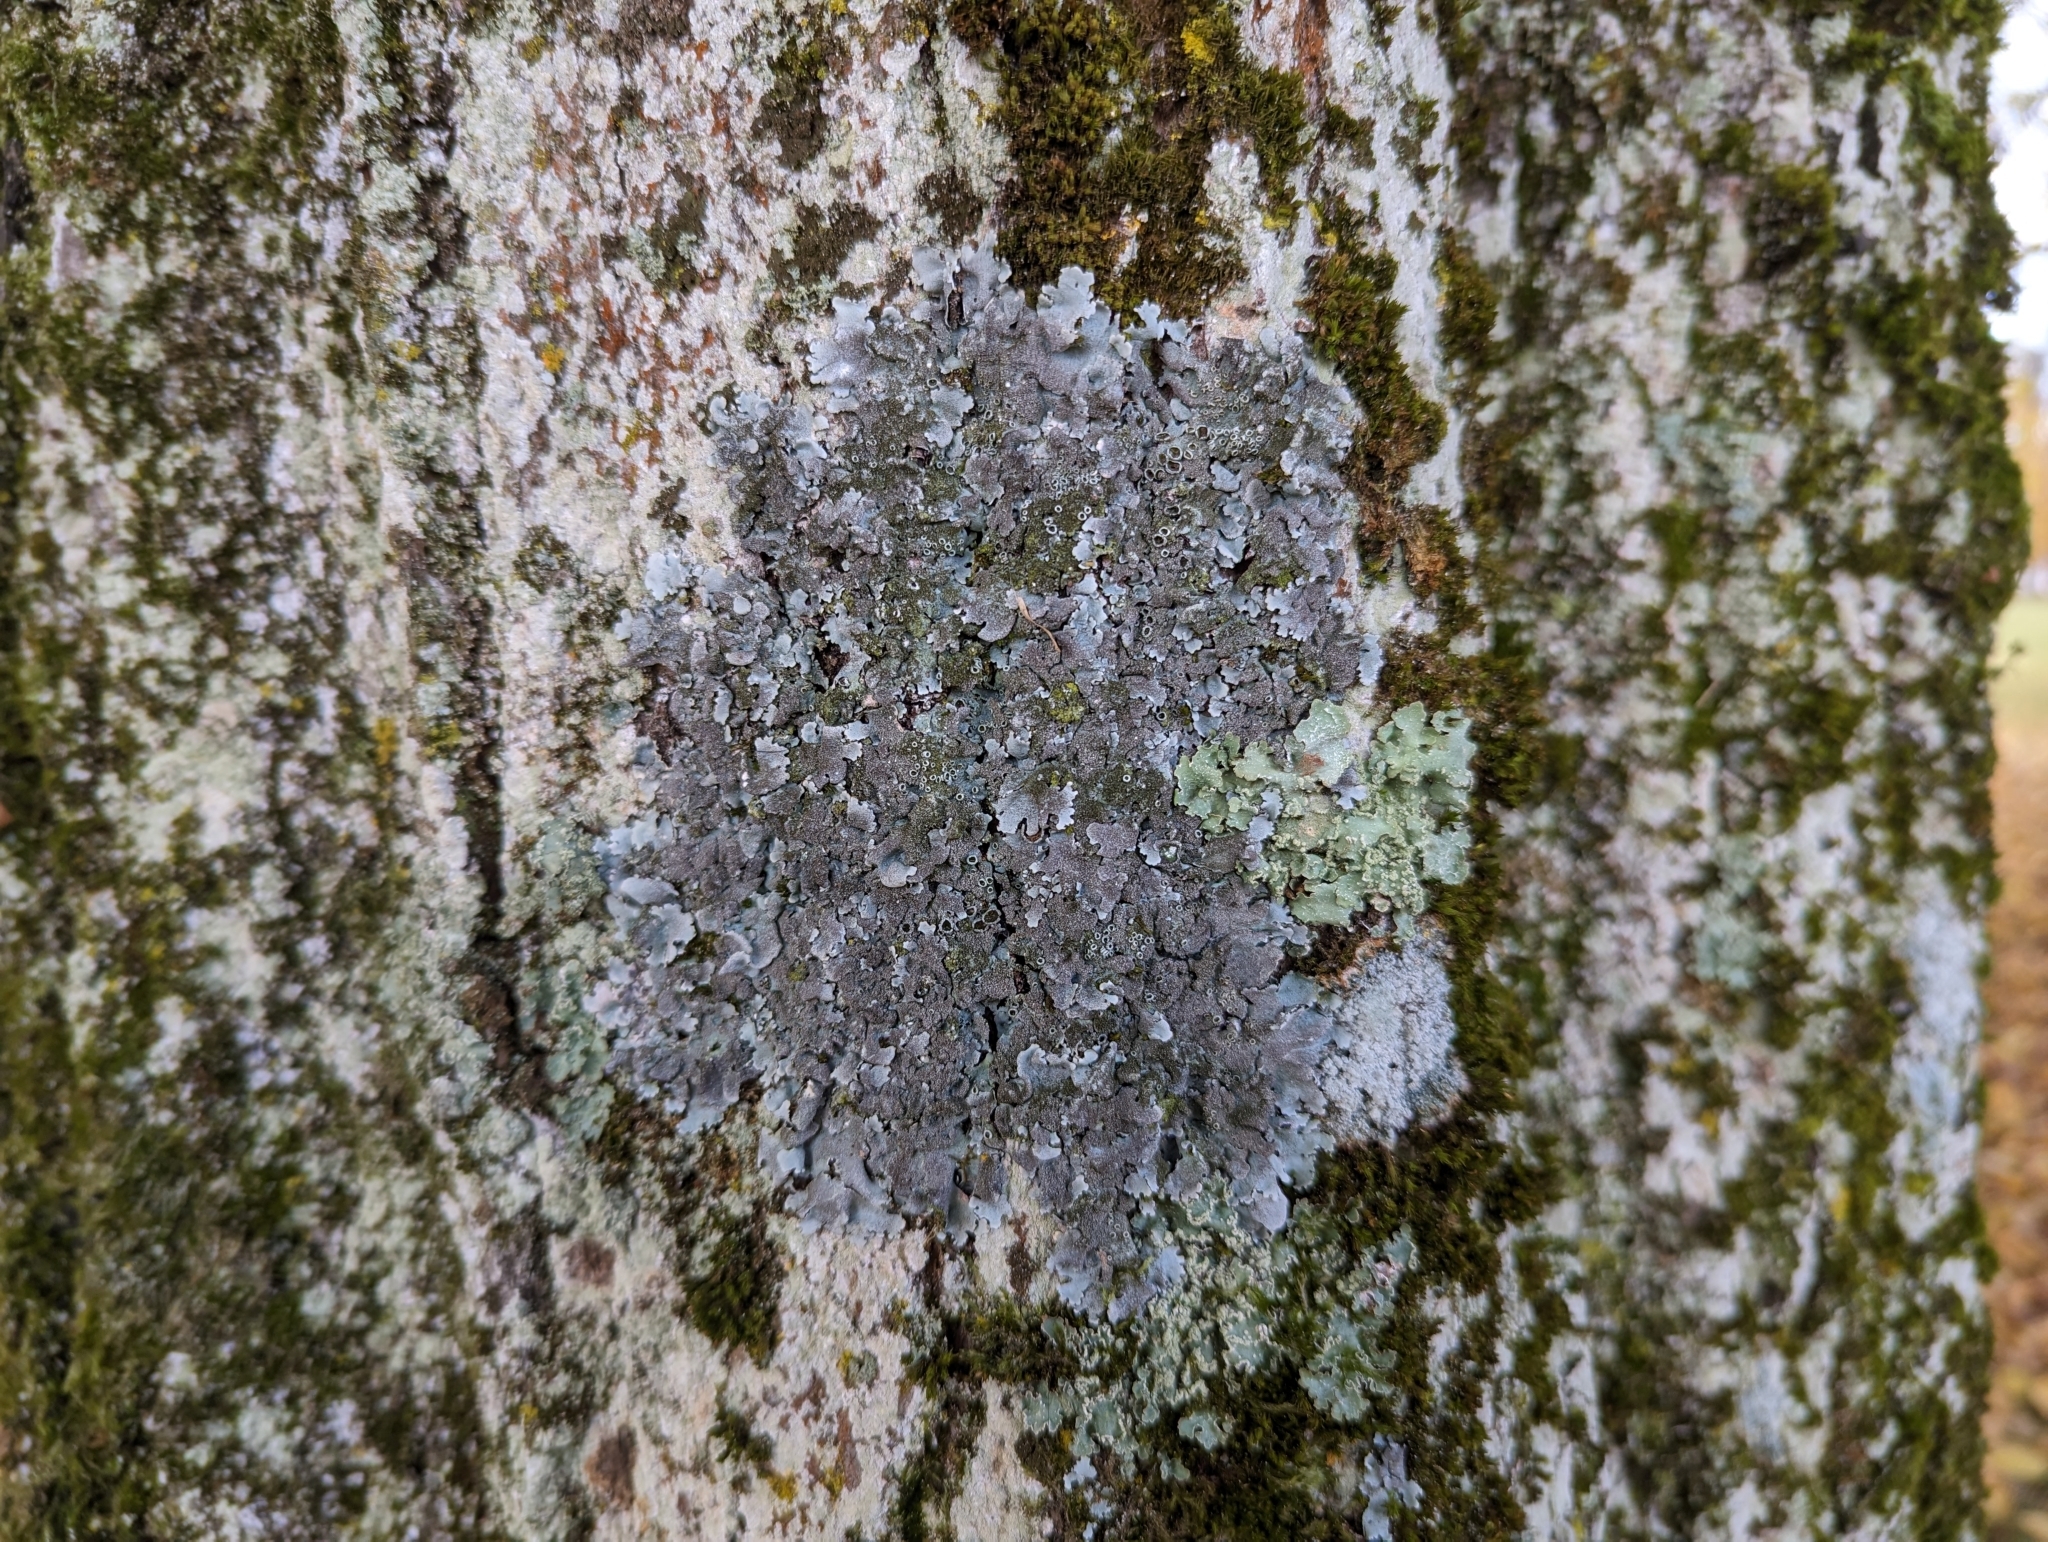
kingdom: Fungi
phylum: Ascomycota
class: Lecanoromycetes
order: Lecanorales
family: Parmeliaceae
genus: Parmelina
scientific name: Parmelina tiliacea
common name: Linden shield lichen
